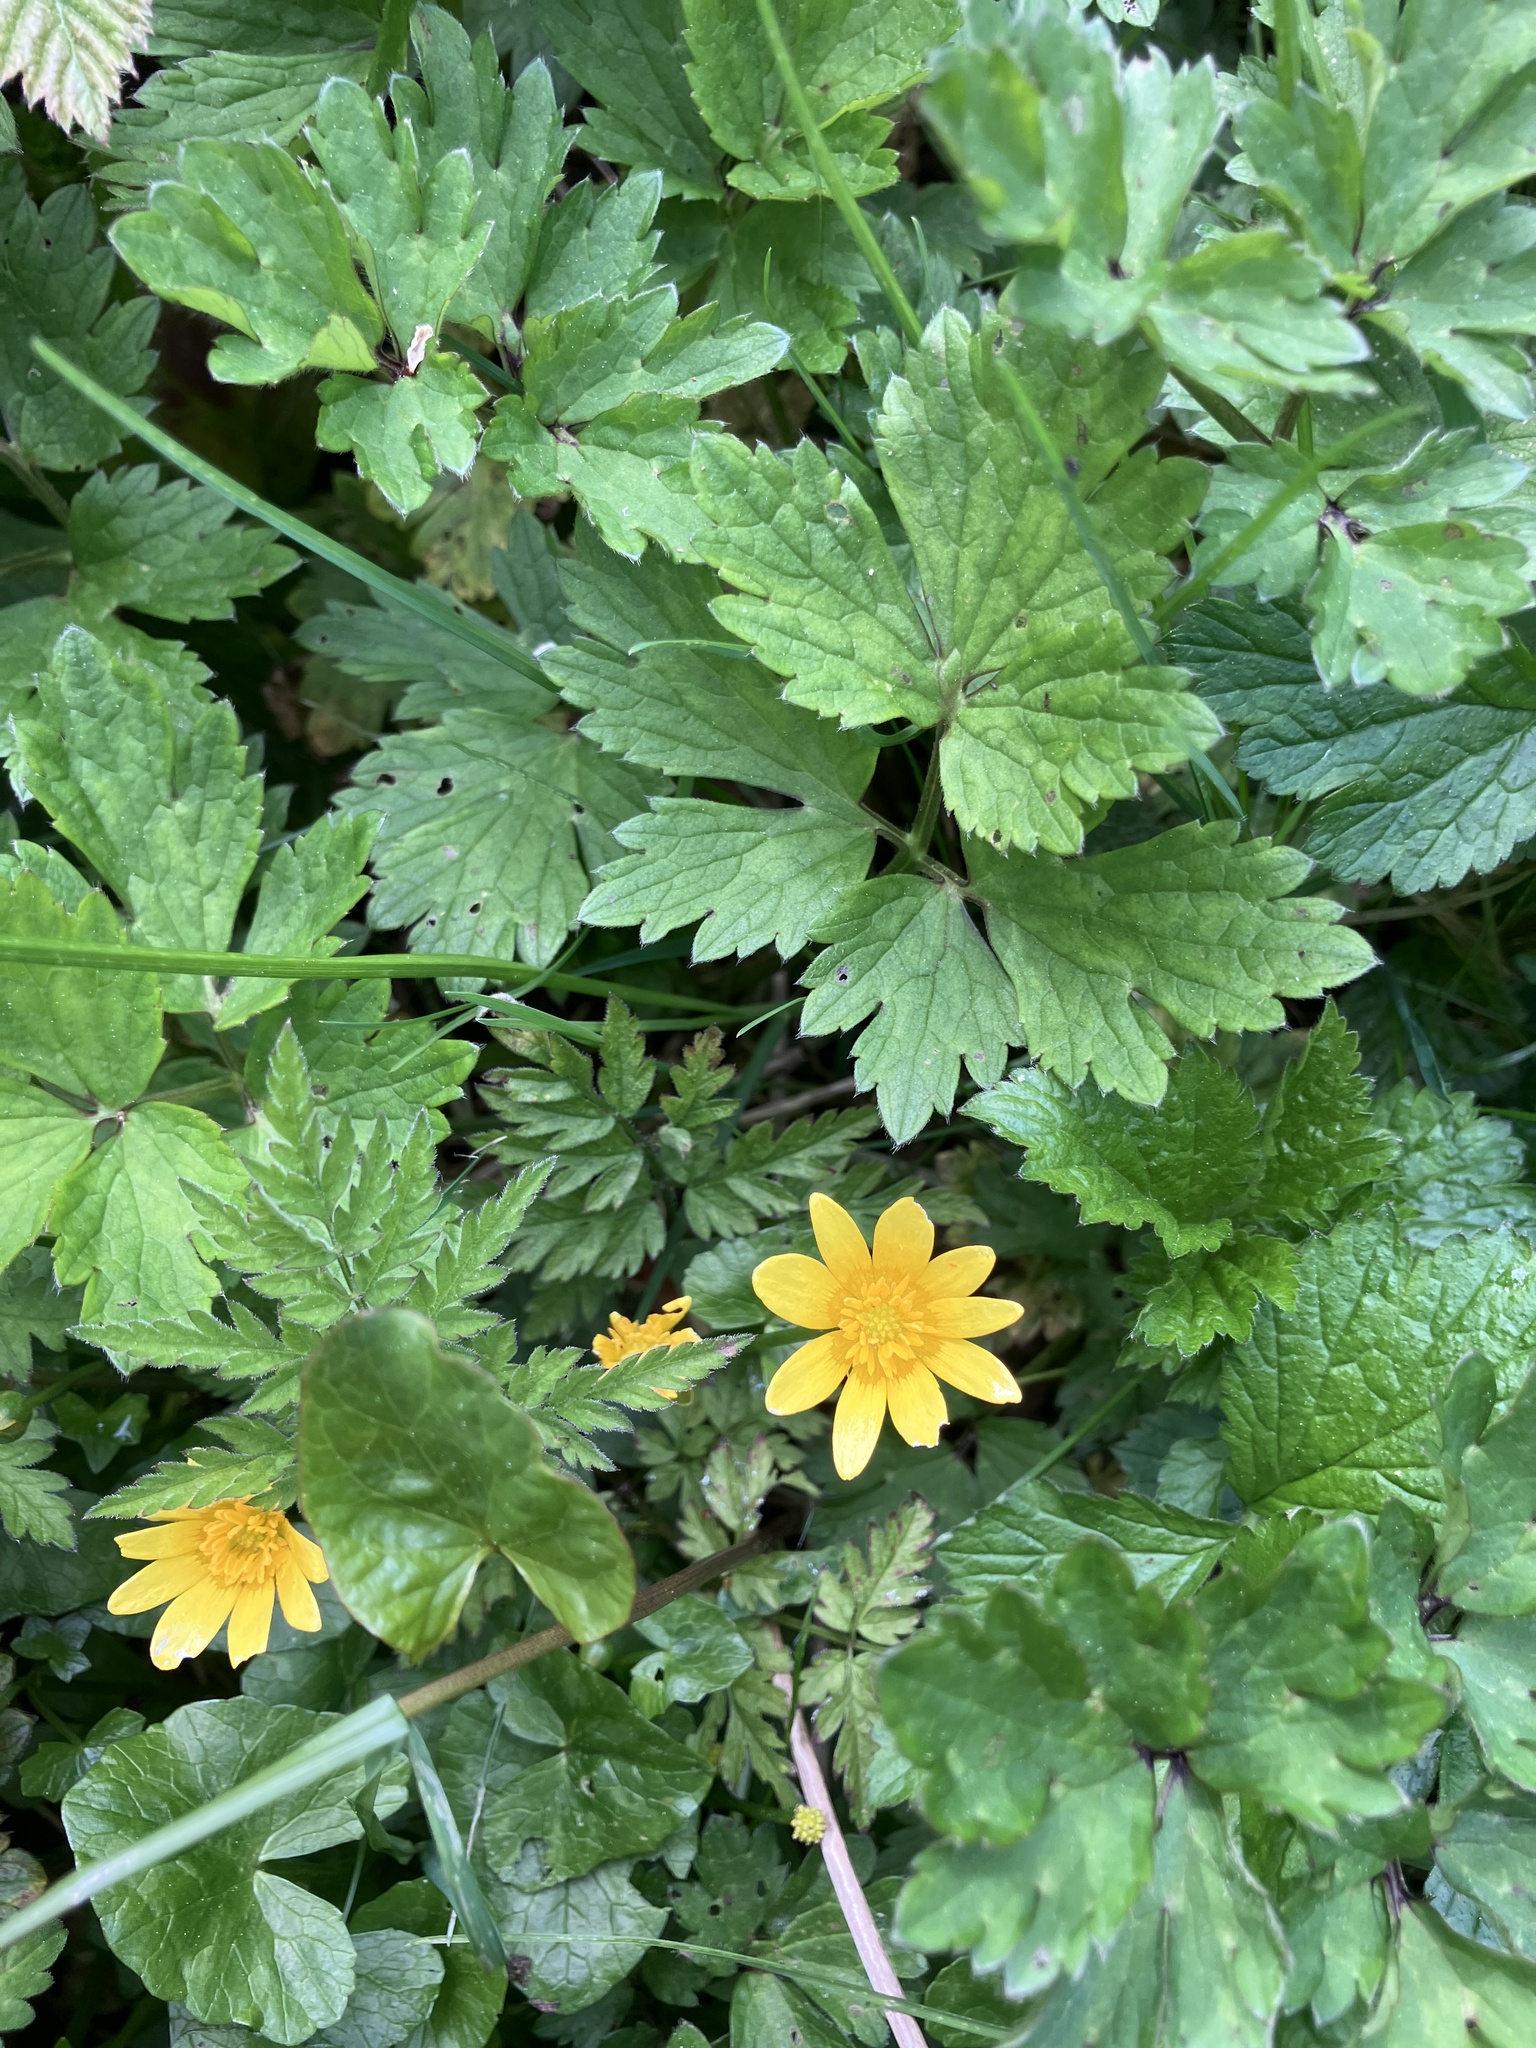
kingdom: Plantae
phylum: Tracheophyta
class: Magnoliopsida
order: Ranunculales
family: Ranunculaceae
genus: Ficaria
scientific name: Ficaria verna
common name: Lesser celandine
